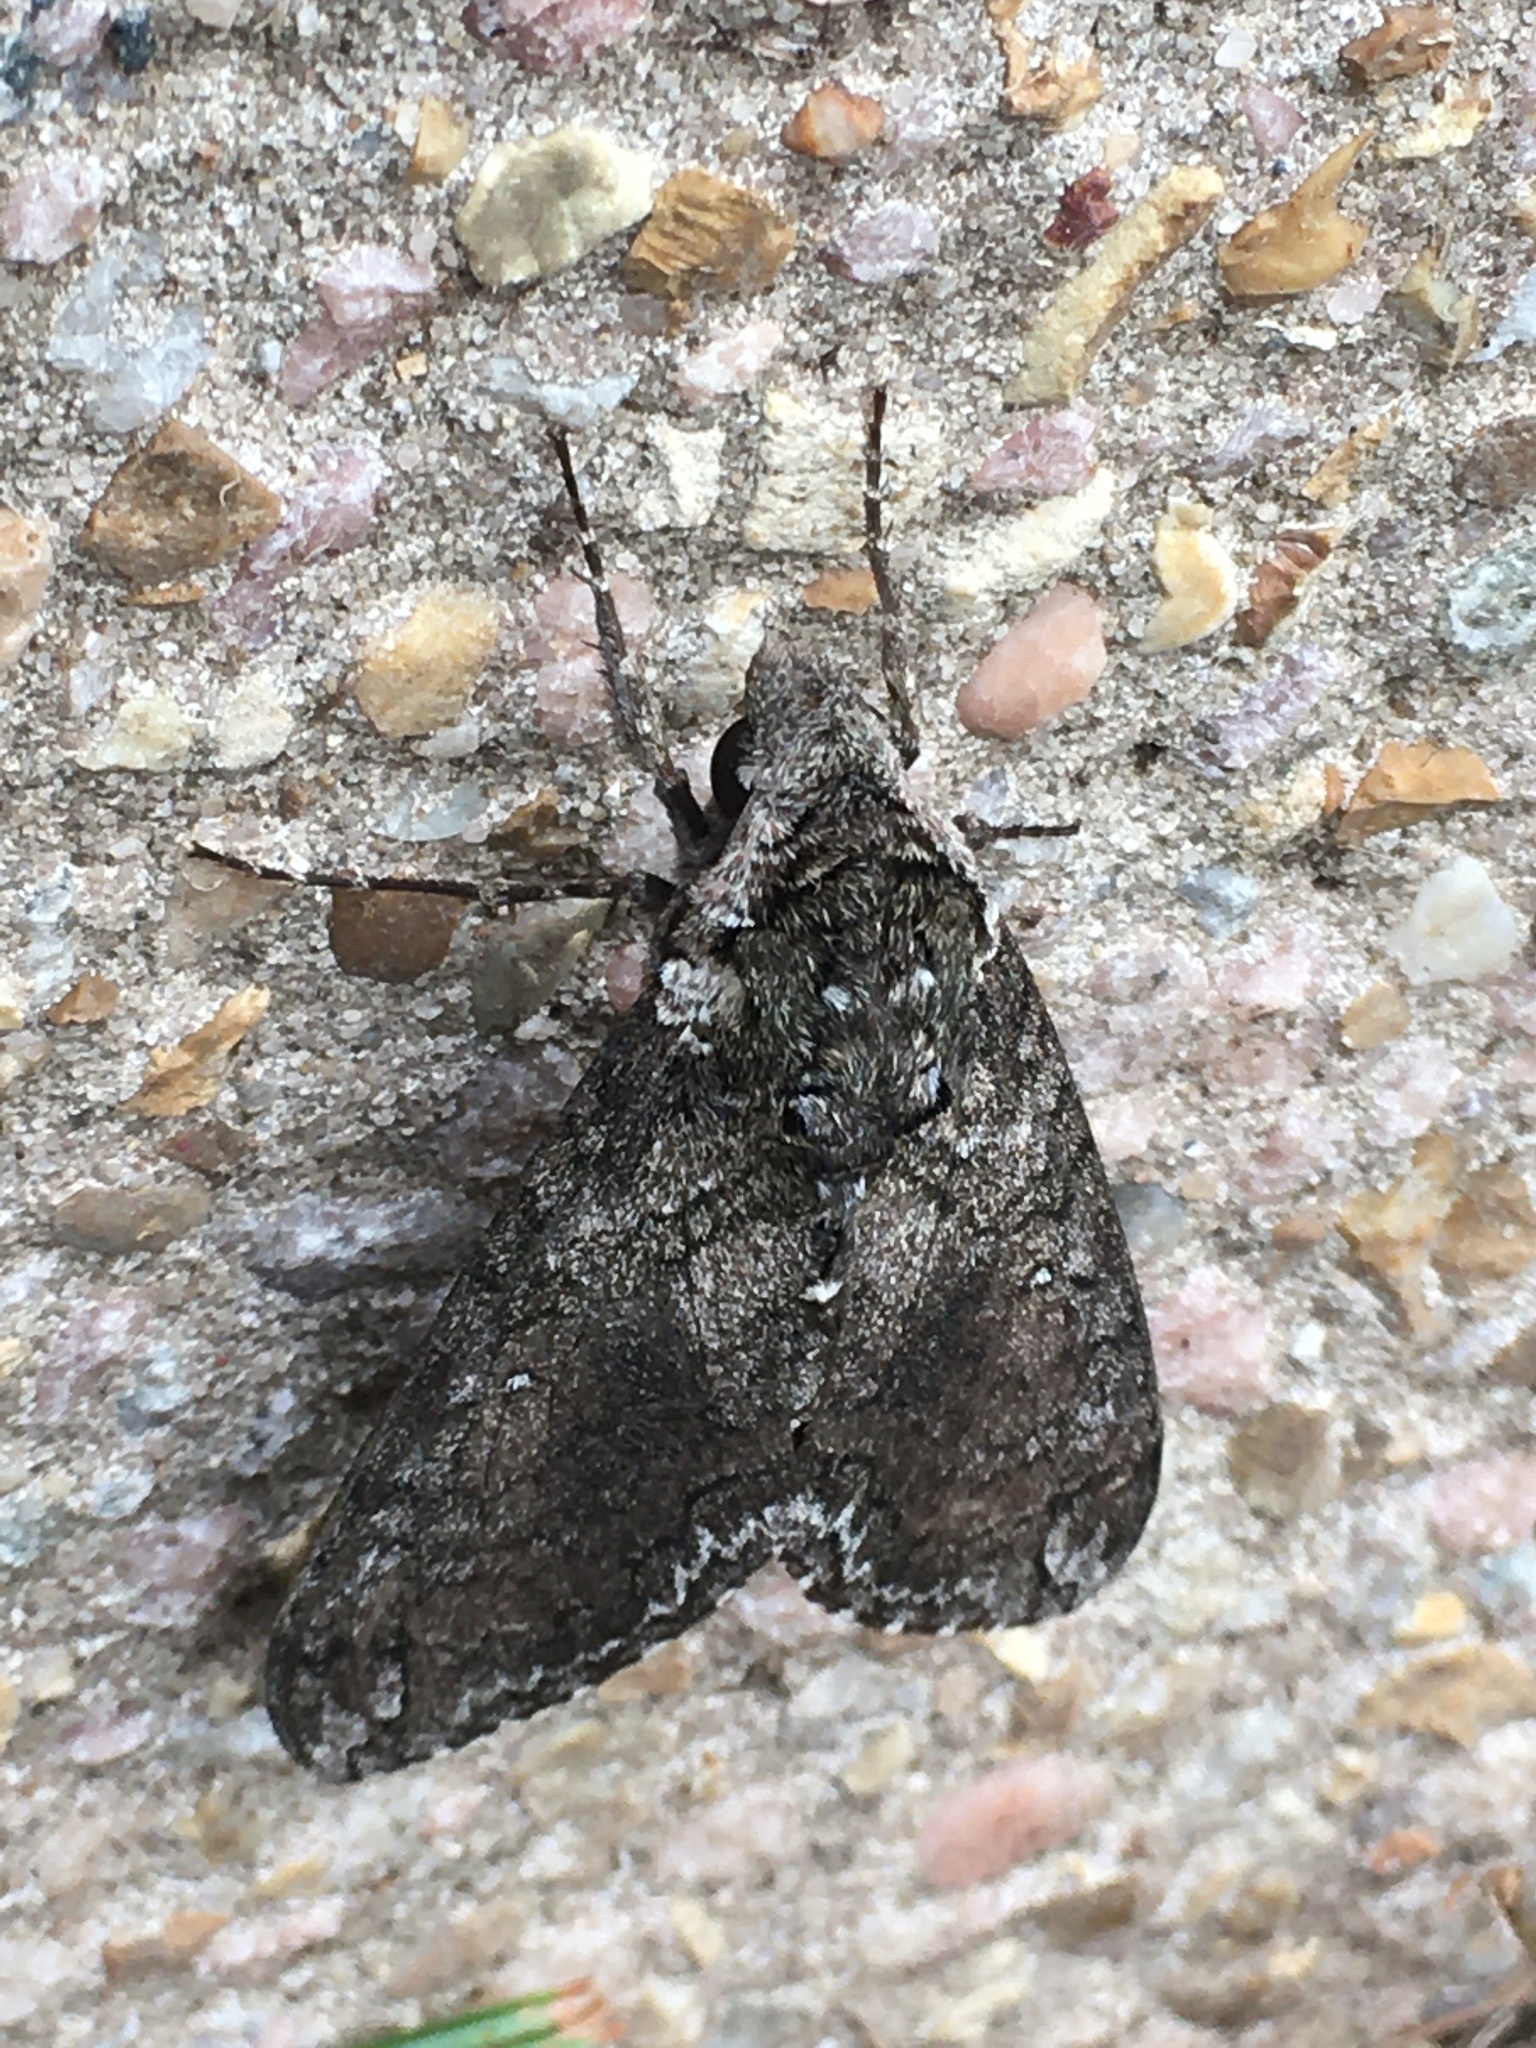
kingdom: Animalia
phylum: Arthropoda
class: Insecta
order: Lepidoptera
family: Sphingidae
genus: Manduca
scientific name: Manduca sexta
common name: Carolina sphinx
